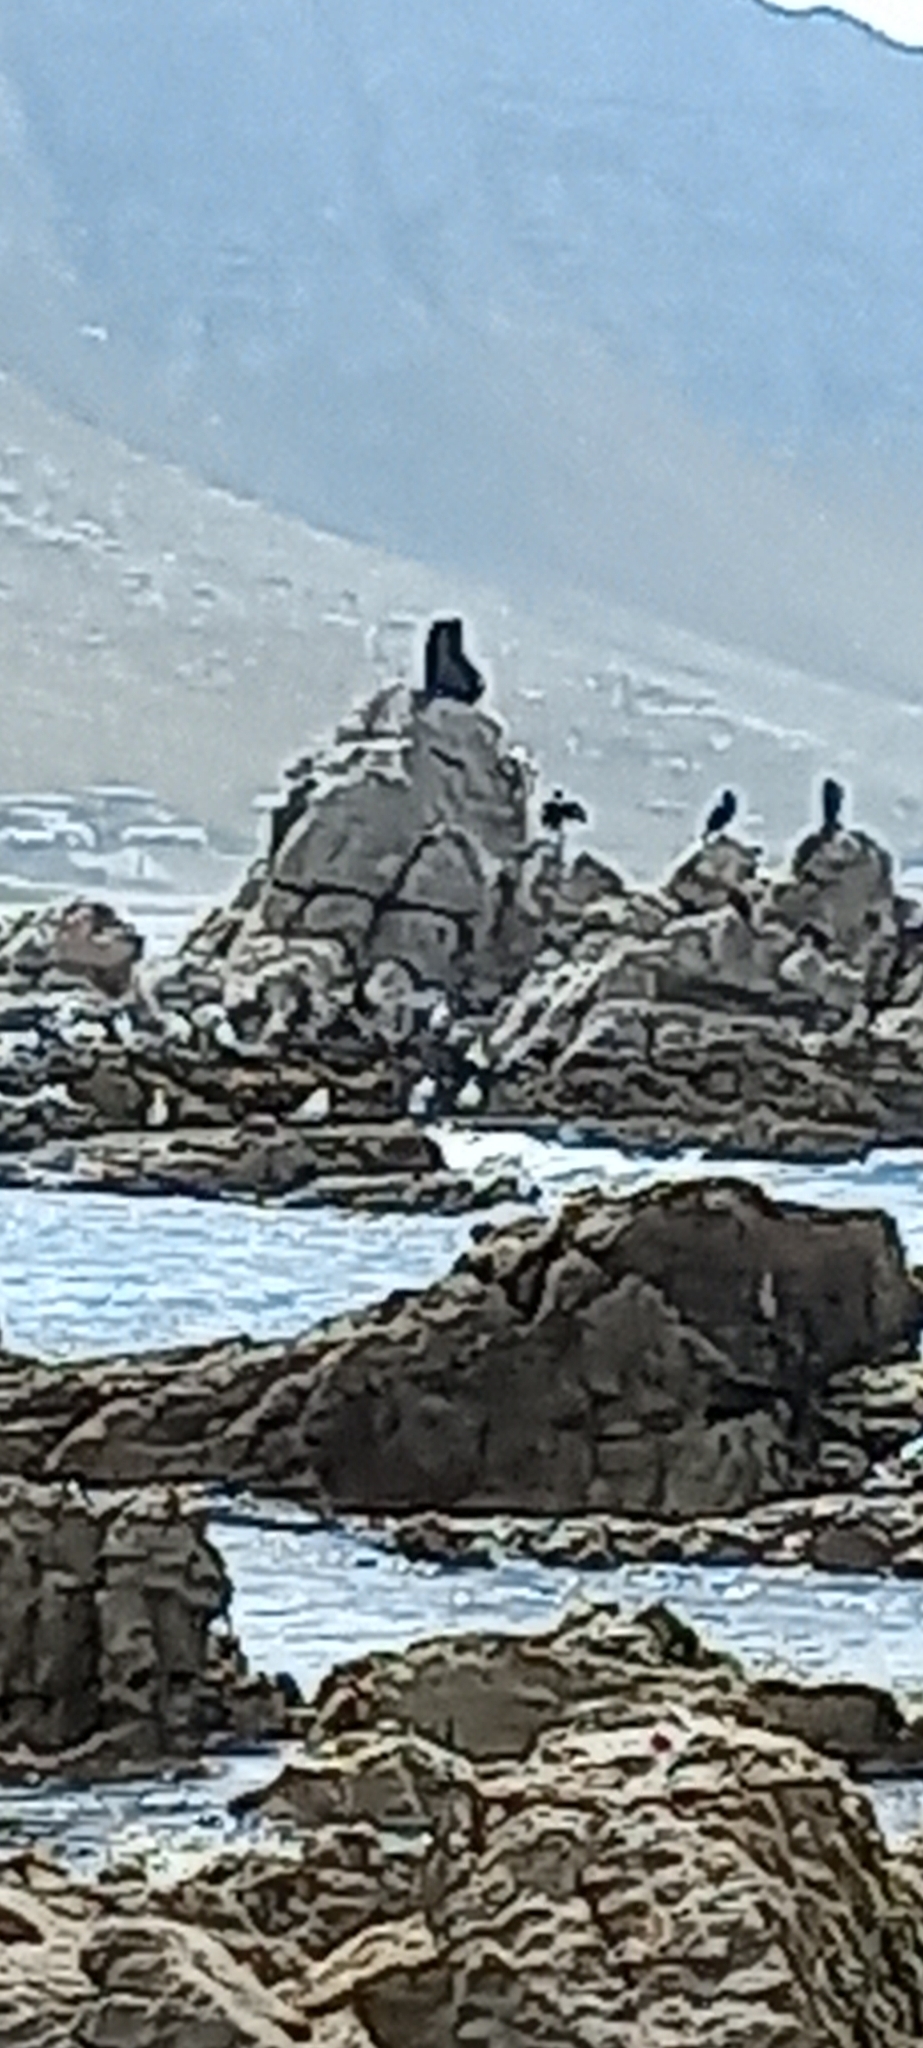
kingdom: Animalia
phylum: Chordata
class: Mammalia
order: Carnivora
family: Otariidae
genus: Arctocephalus
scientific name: Arctocephalus pusillus
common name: Brown fur seal
